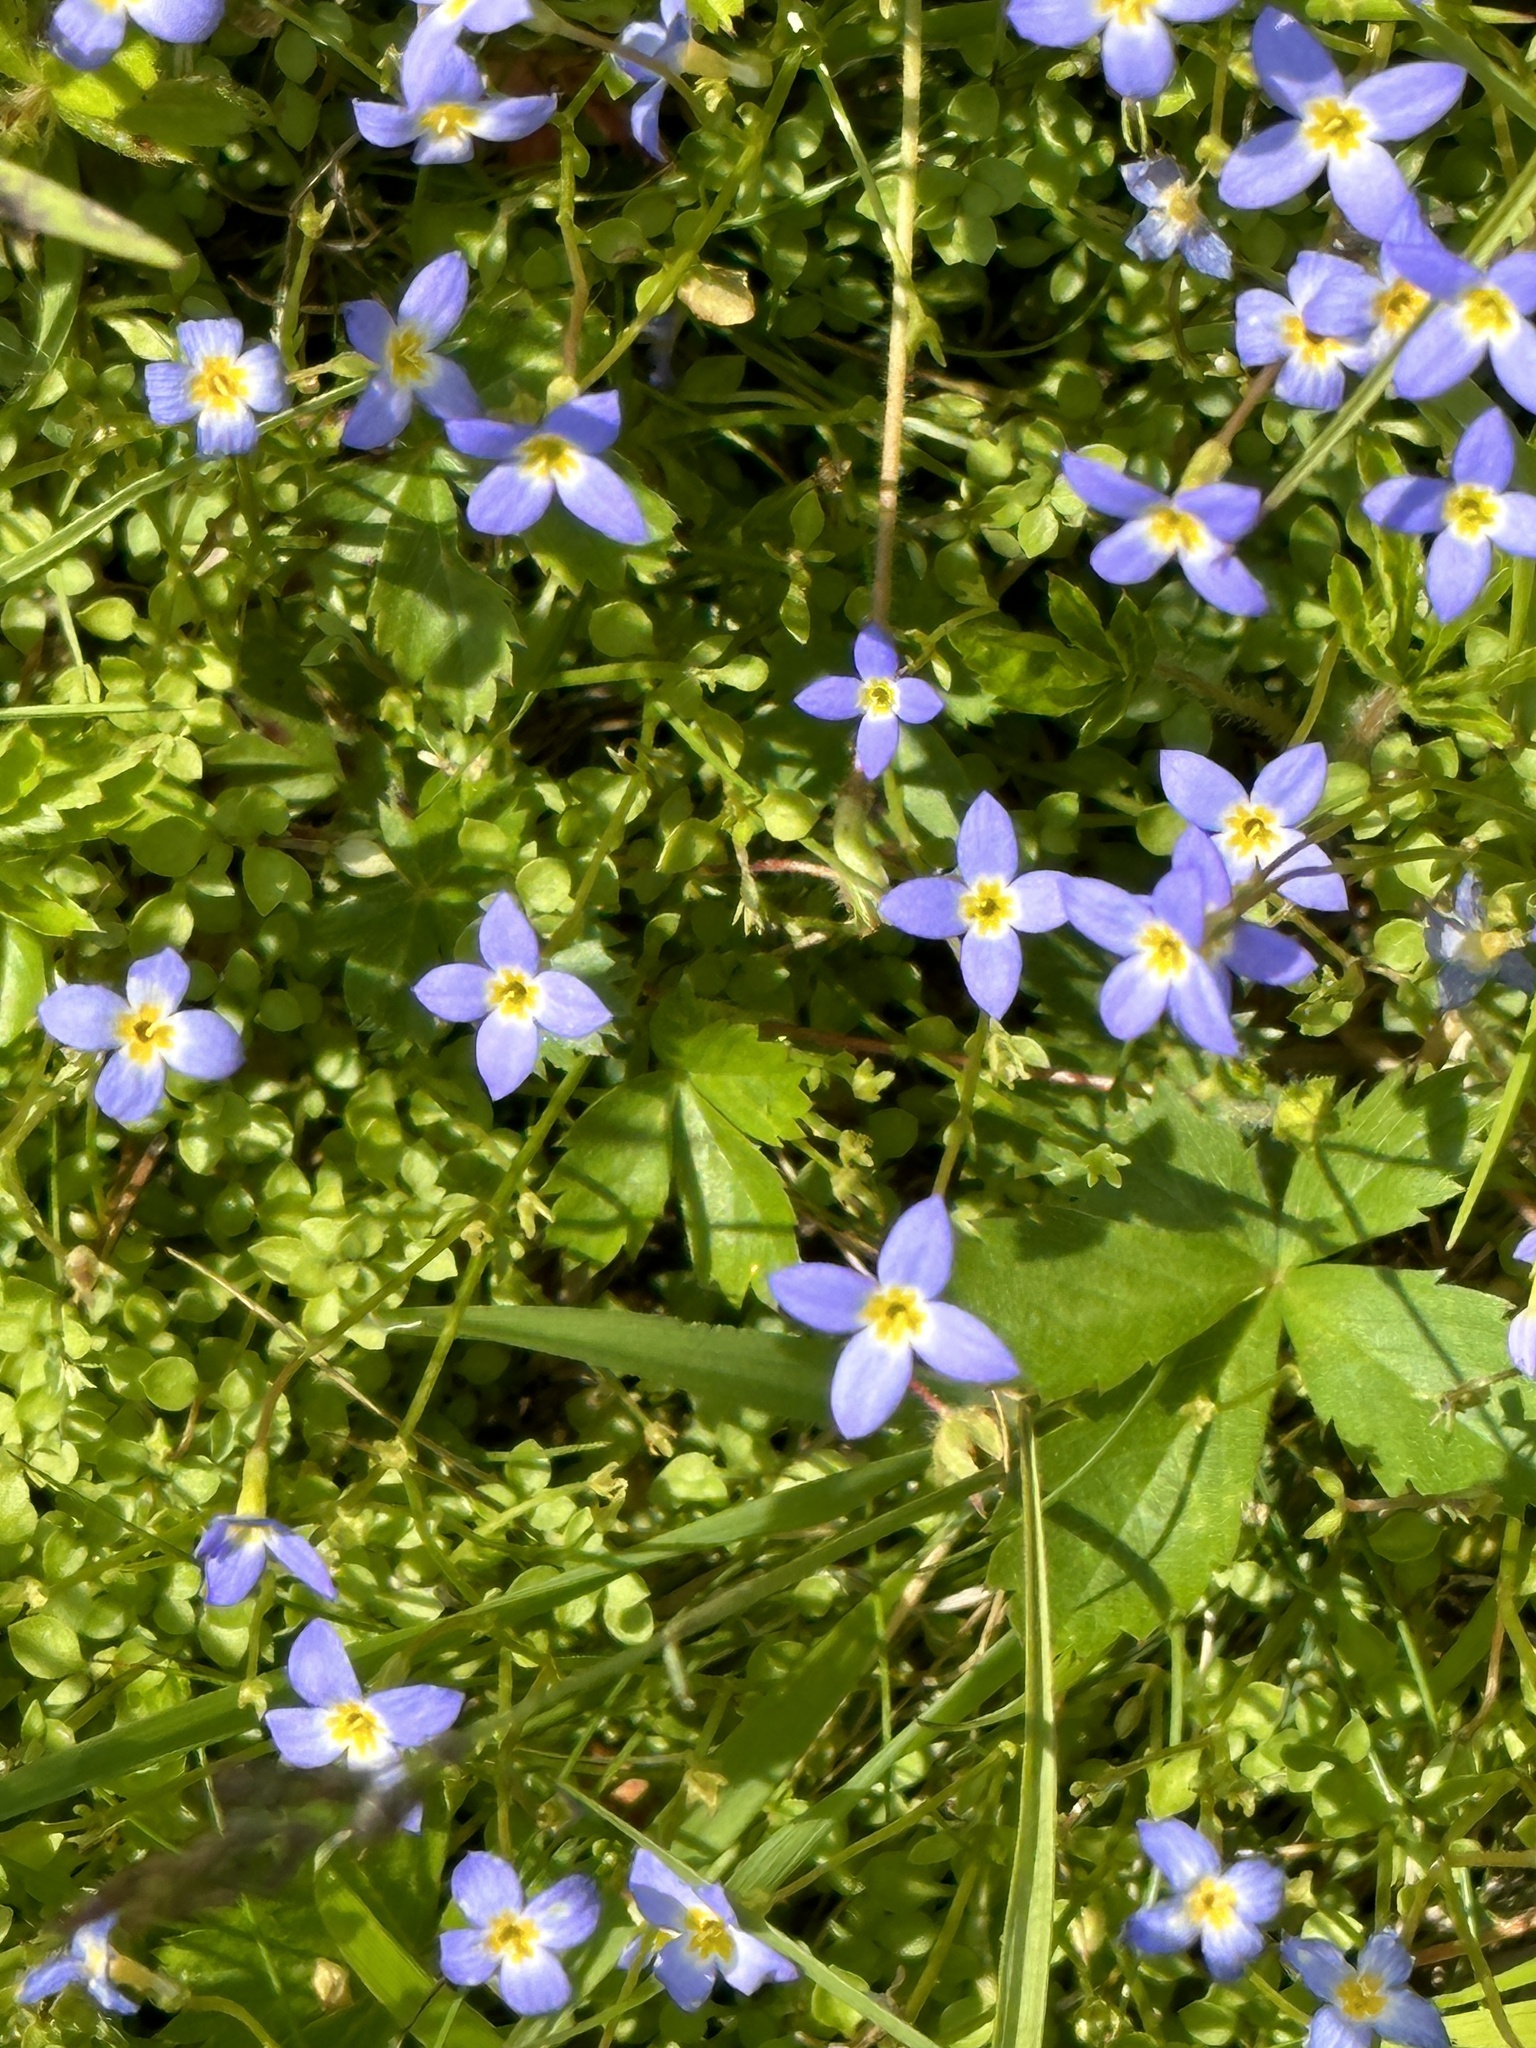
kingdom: Plantae
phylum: Tracheophyta
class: Magnoliopsida
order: Gentianales
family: Rubiaceae
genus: Houstonia
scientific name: Houstonia serpyllifolia
